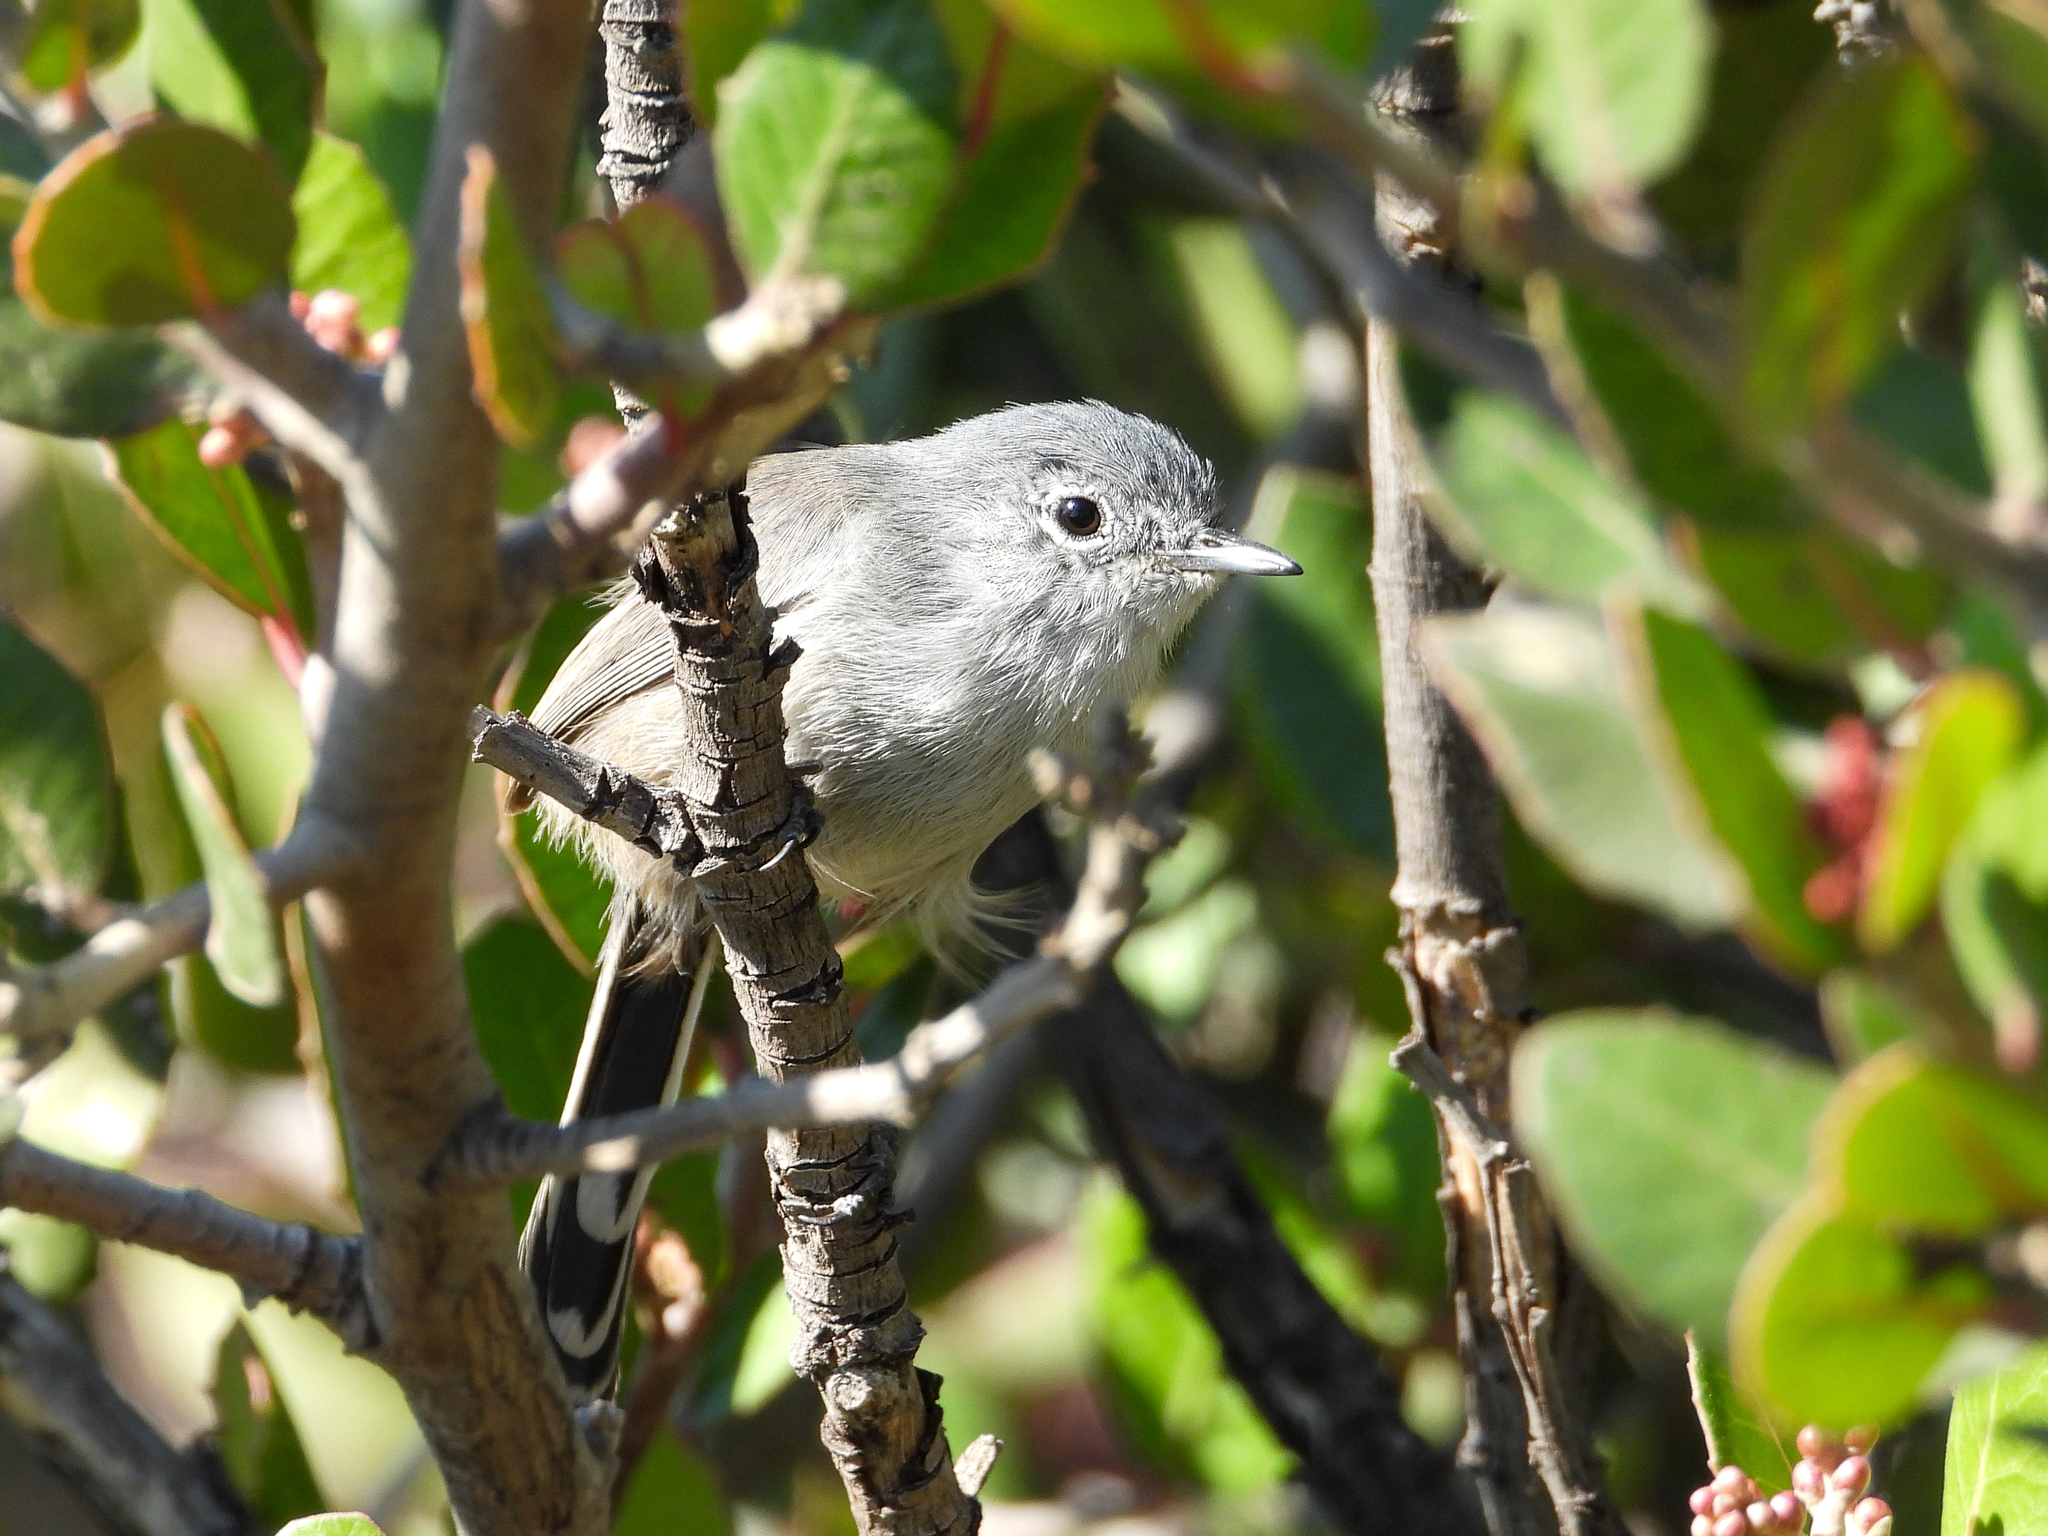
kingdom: Animalia
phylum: Chordata
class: Aves
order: Passeriformes
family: Polioptilidae
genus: Polioptila
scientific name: Polioptila californica
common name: California gnatcatcher
